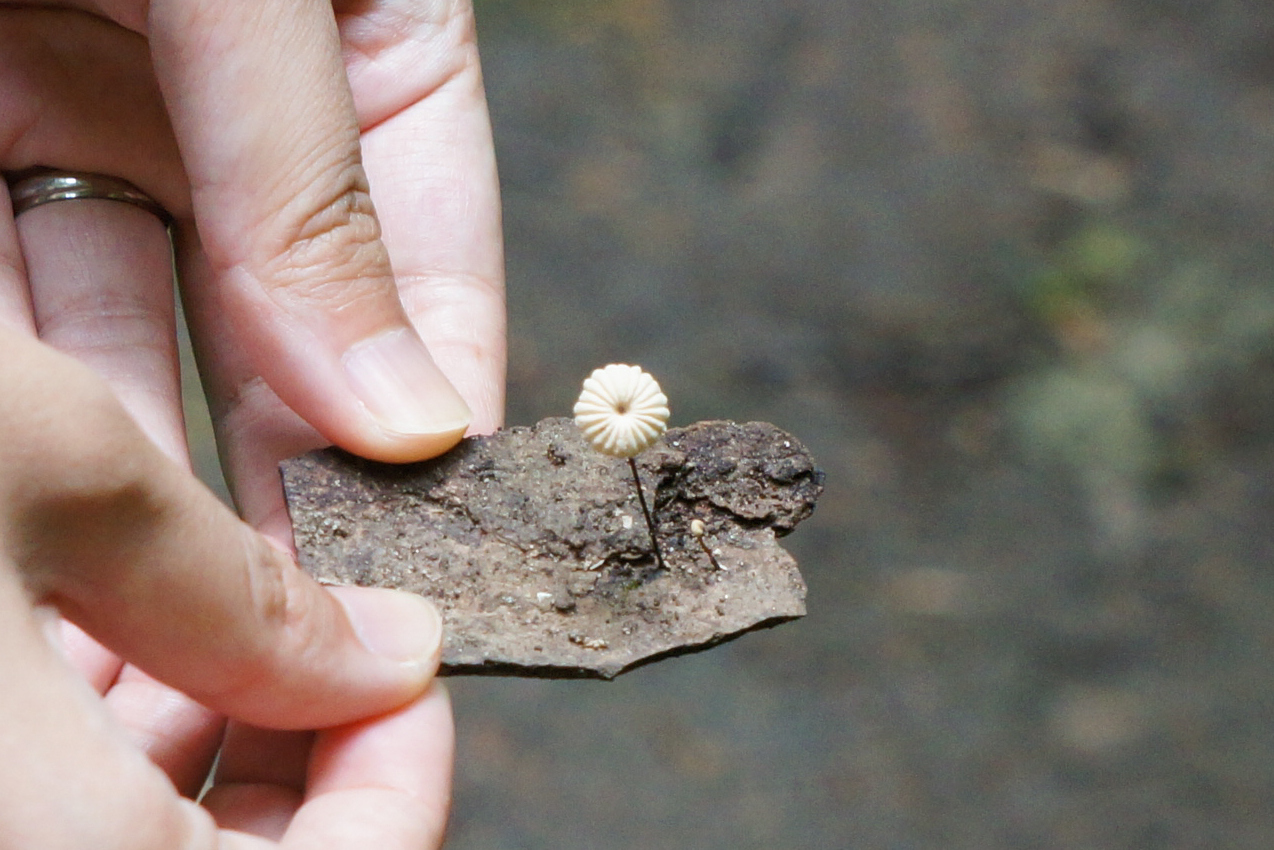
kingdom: Fungi
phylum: Basidiomycota
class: Agaricomycetes
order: Agaricales
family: Marasmiaceae
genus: Marasmius
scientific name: Marasmius rotula
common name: Collared parachute
